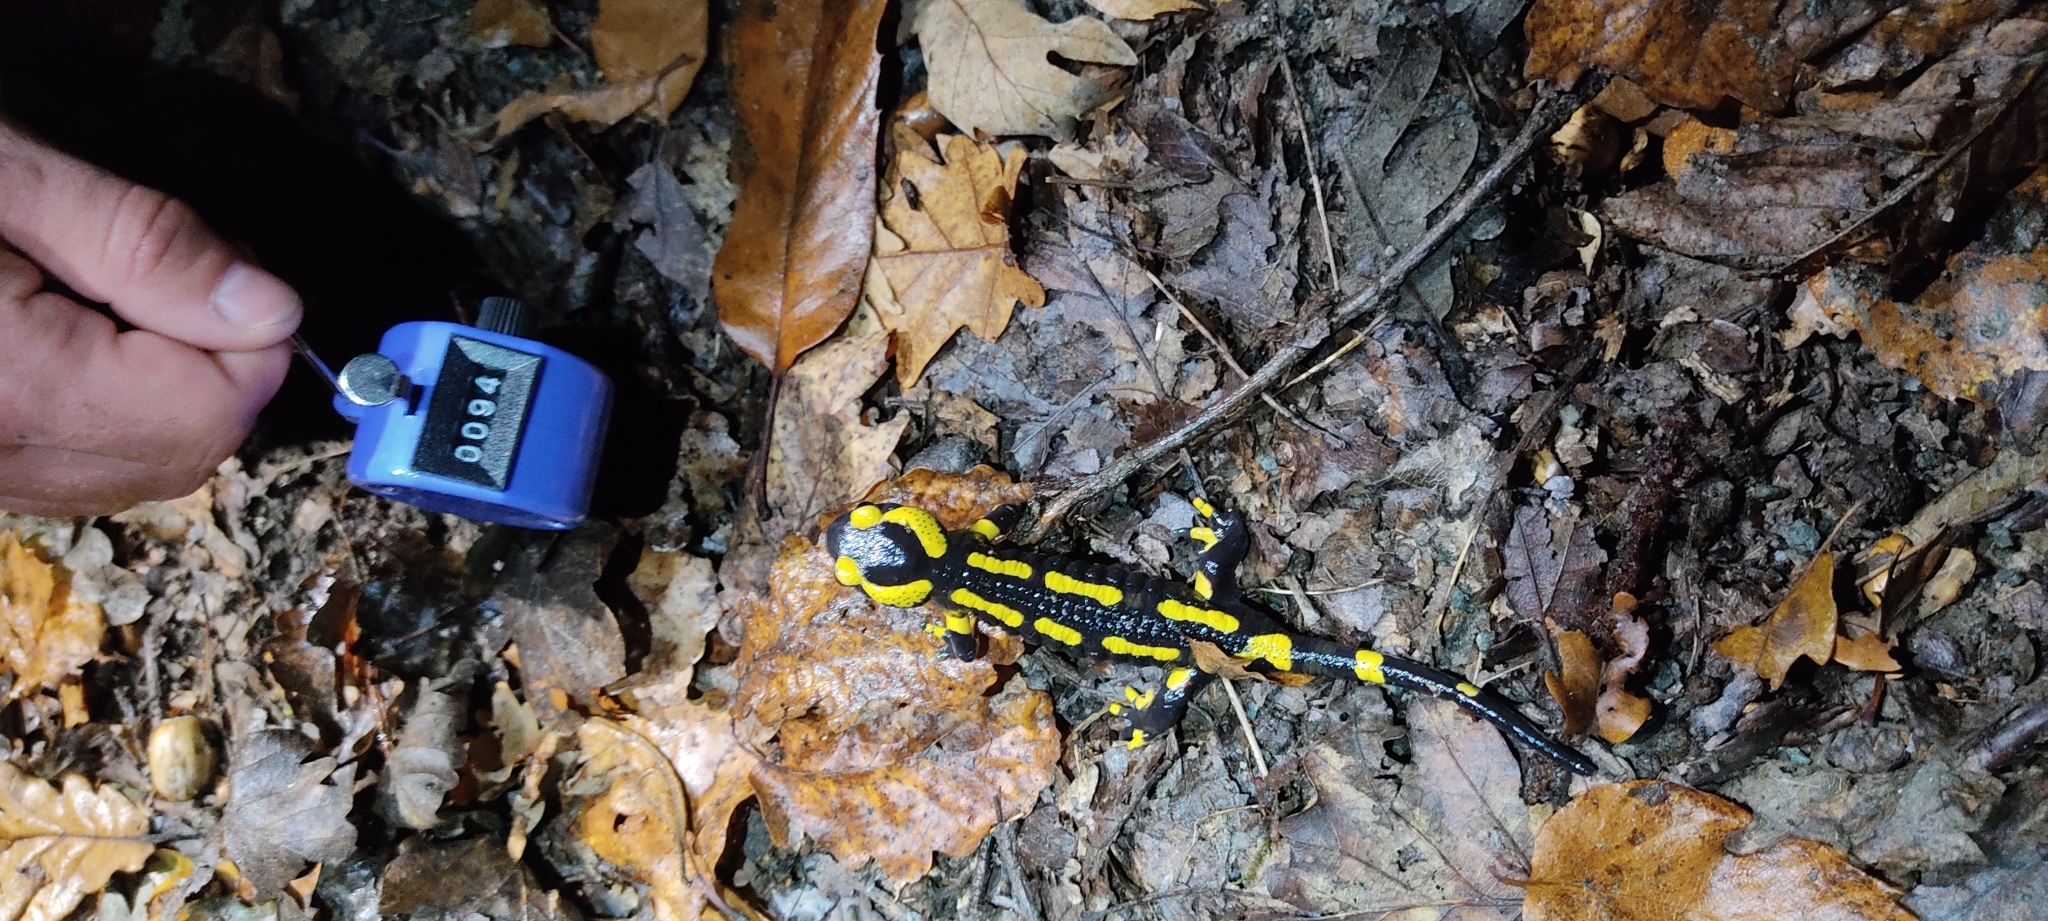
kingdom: Animalia
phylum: Chordata
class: Amphibia
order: Caudata
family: Salamandridae
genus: Salamandra
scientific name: Salamandra salamandra
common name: Fire salamander
